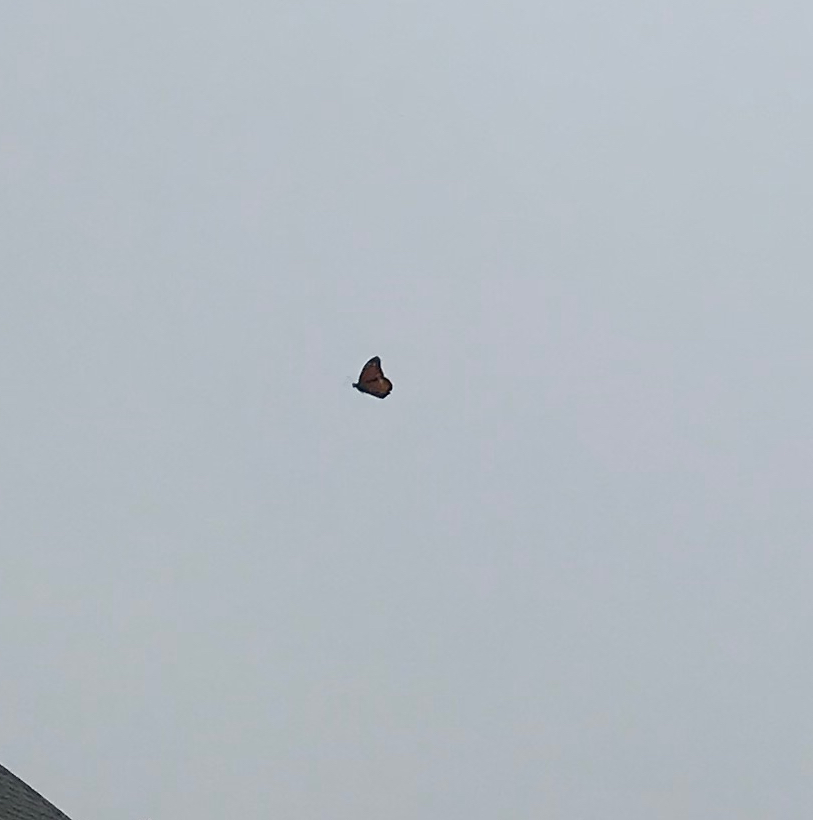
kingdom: Animalia
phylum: Arthropoda
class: Insecta
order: Lepidoptera
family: Nymphalidae
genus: Danaus
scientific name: Danaus plexippus
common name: Monarch
